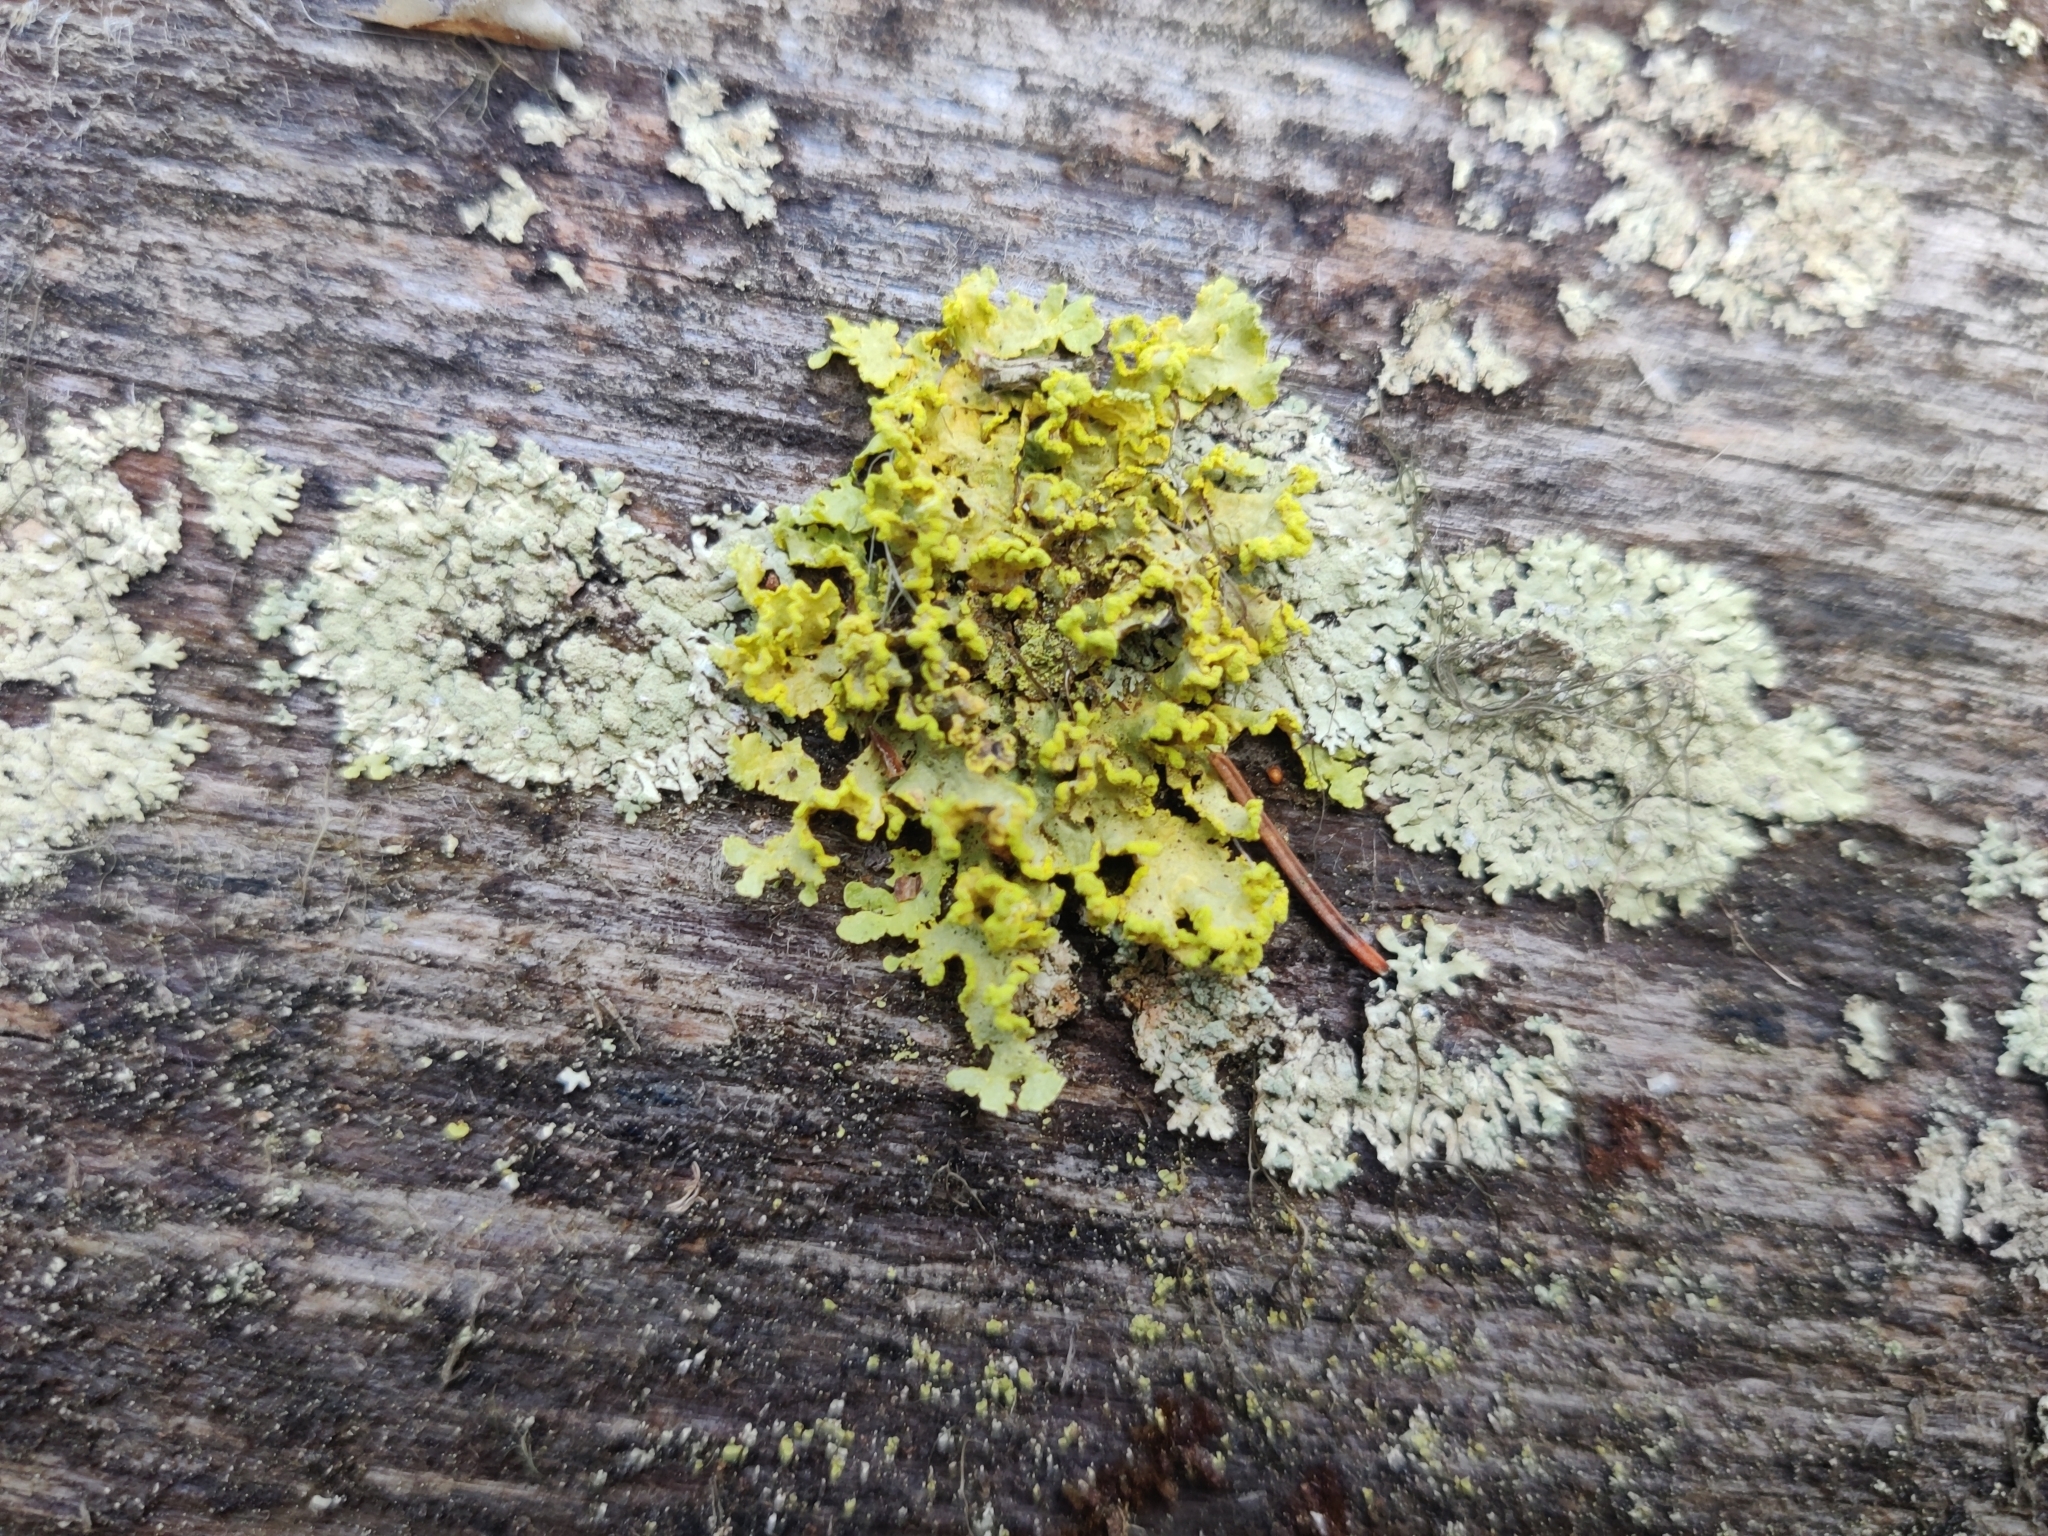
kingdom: Fungi
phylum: Ascomycota
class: Lecanoromycetes
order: Lecanorales
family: Parmeliaceae
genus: Vulpicida
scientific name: Vulpicida pinastri
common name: Powdered sunshine lichen
